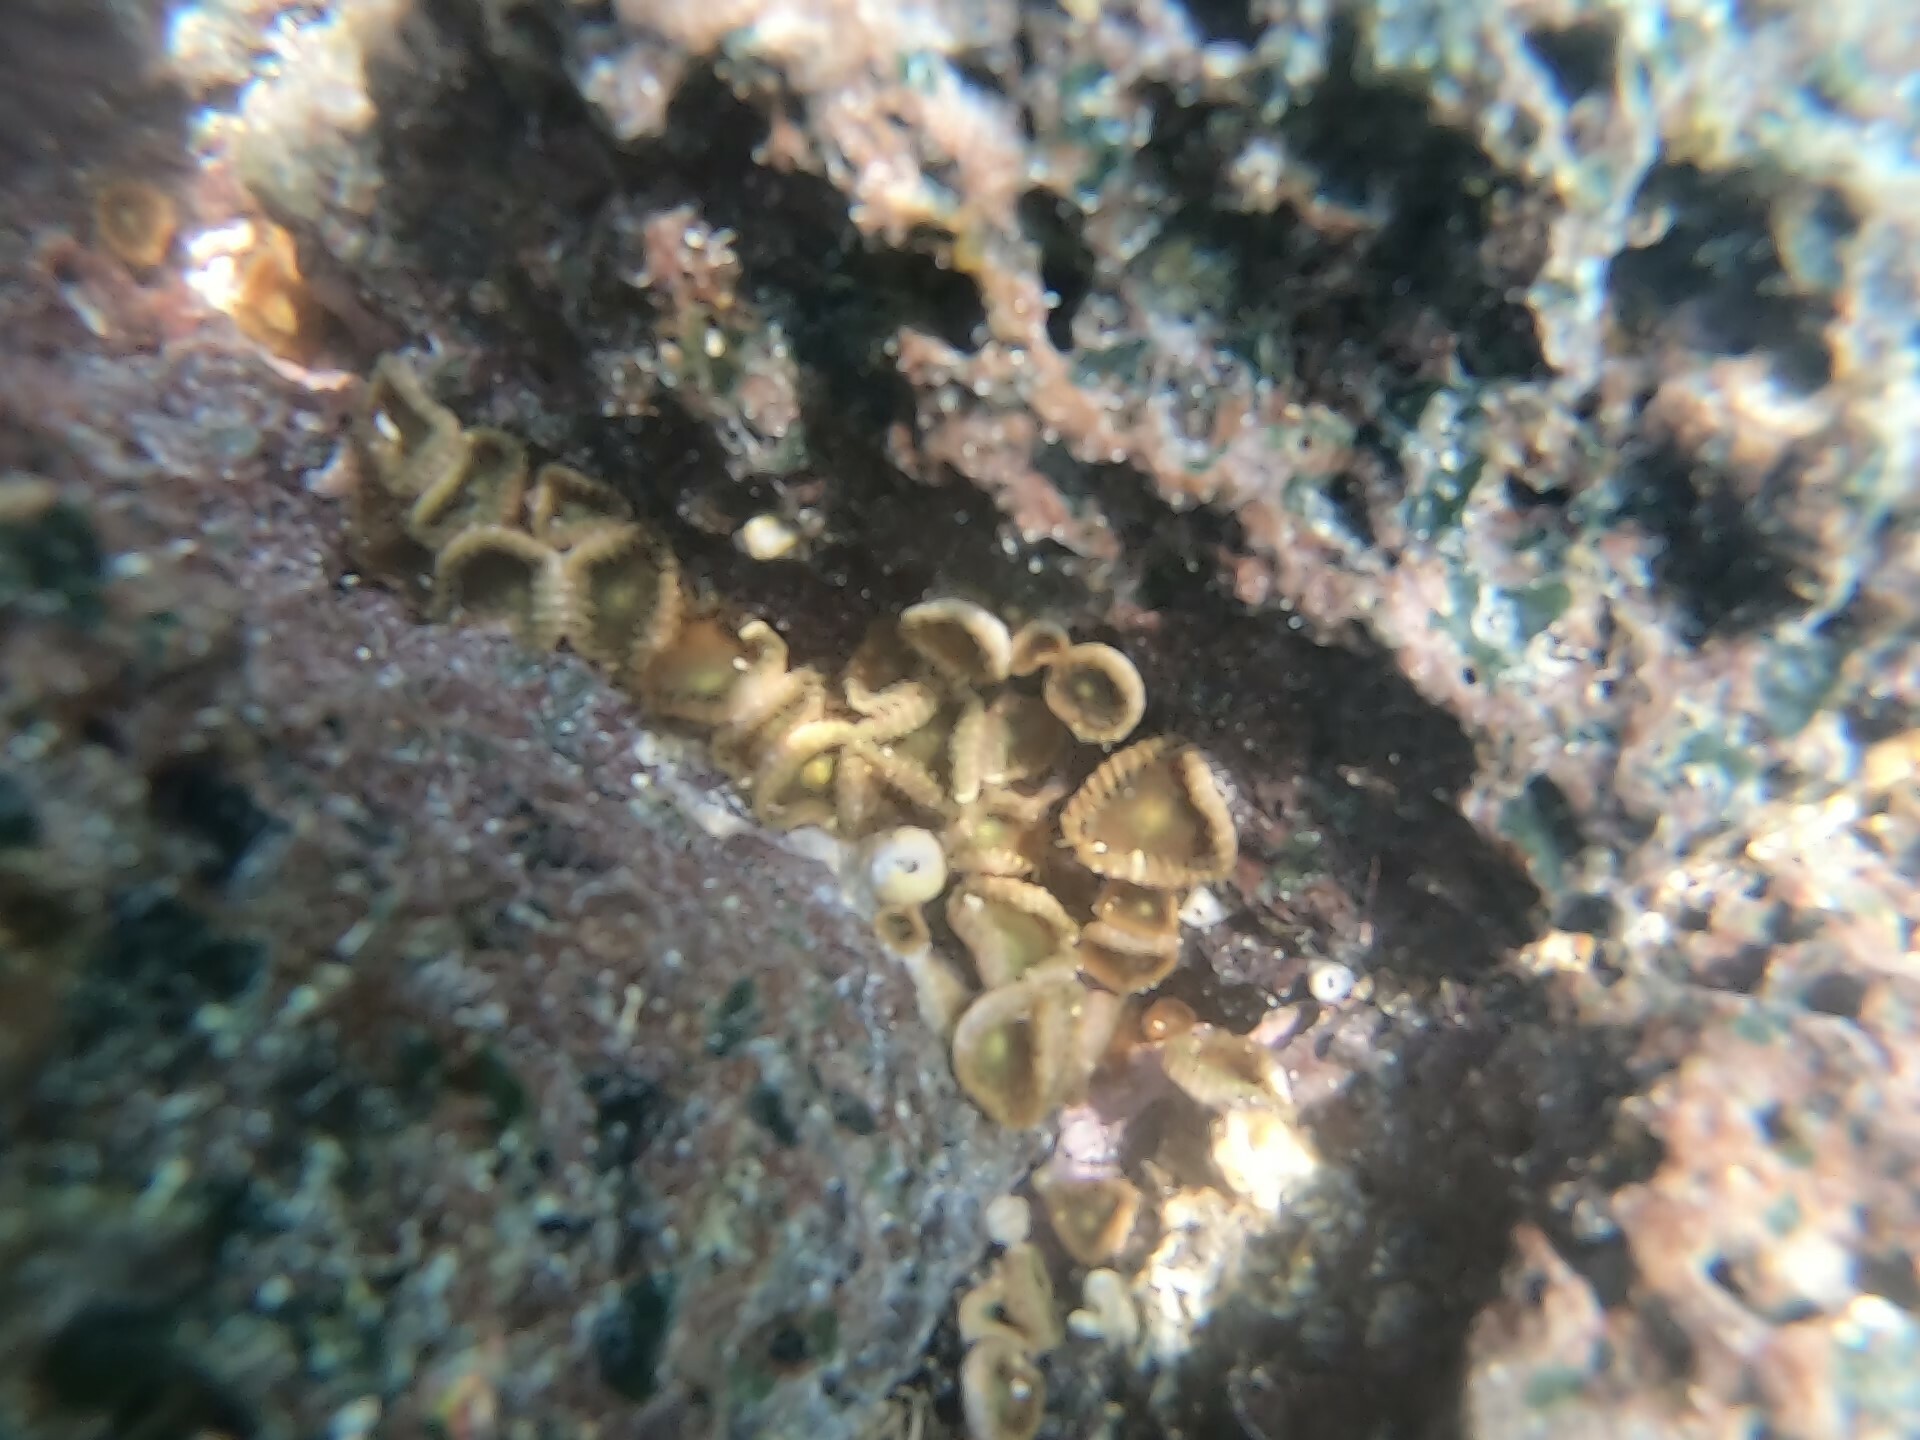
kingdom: Animalia
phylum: Cnidaria
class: Anthozoa
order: Zoantharia
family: Sphenopidae
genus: Palythoa
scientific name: Palythoa mutuki
